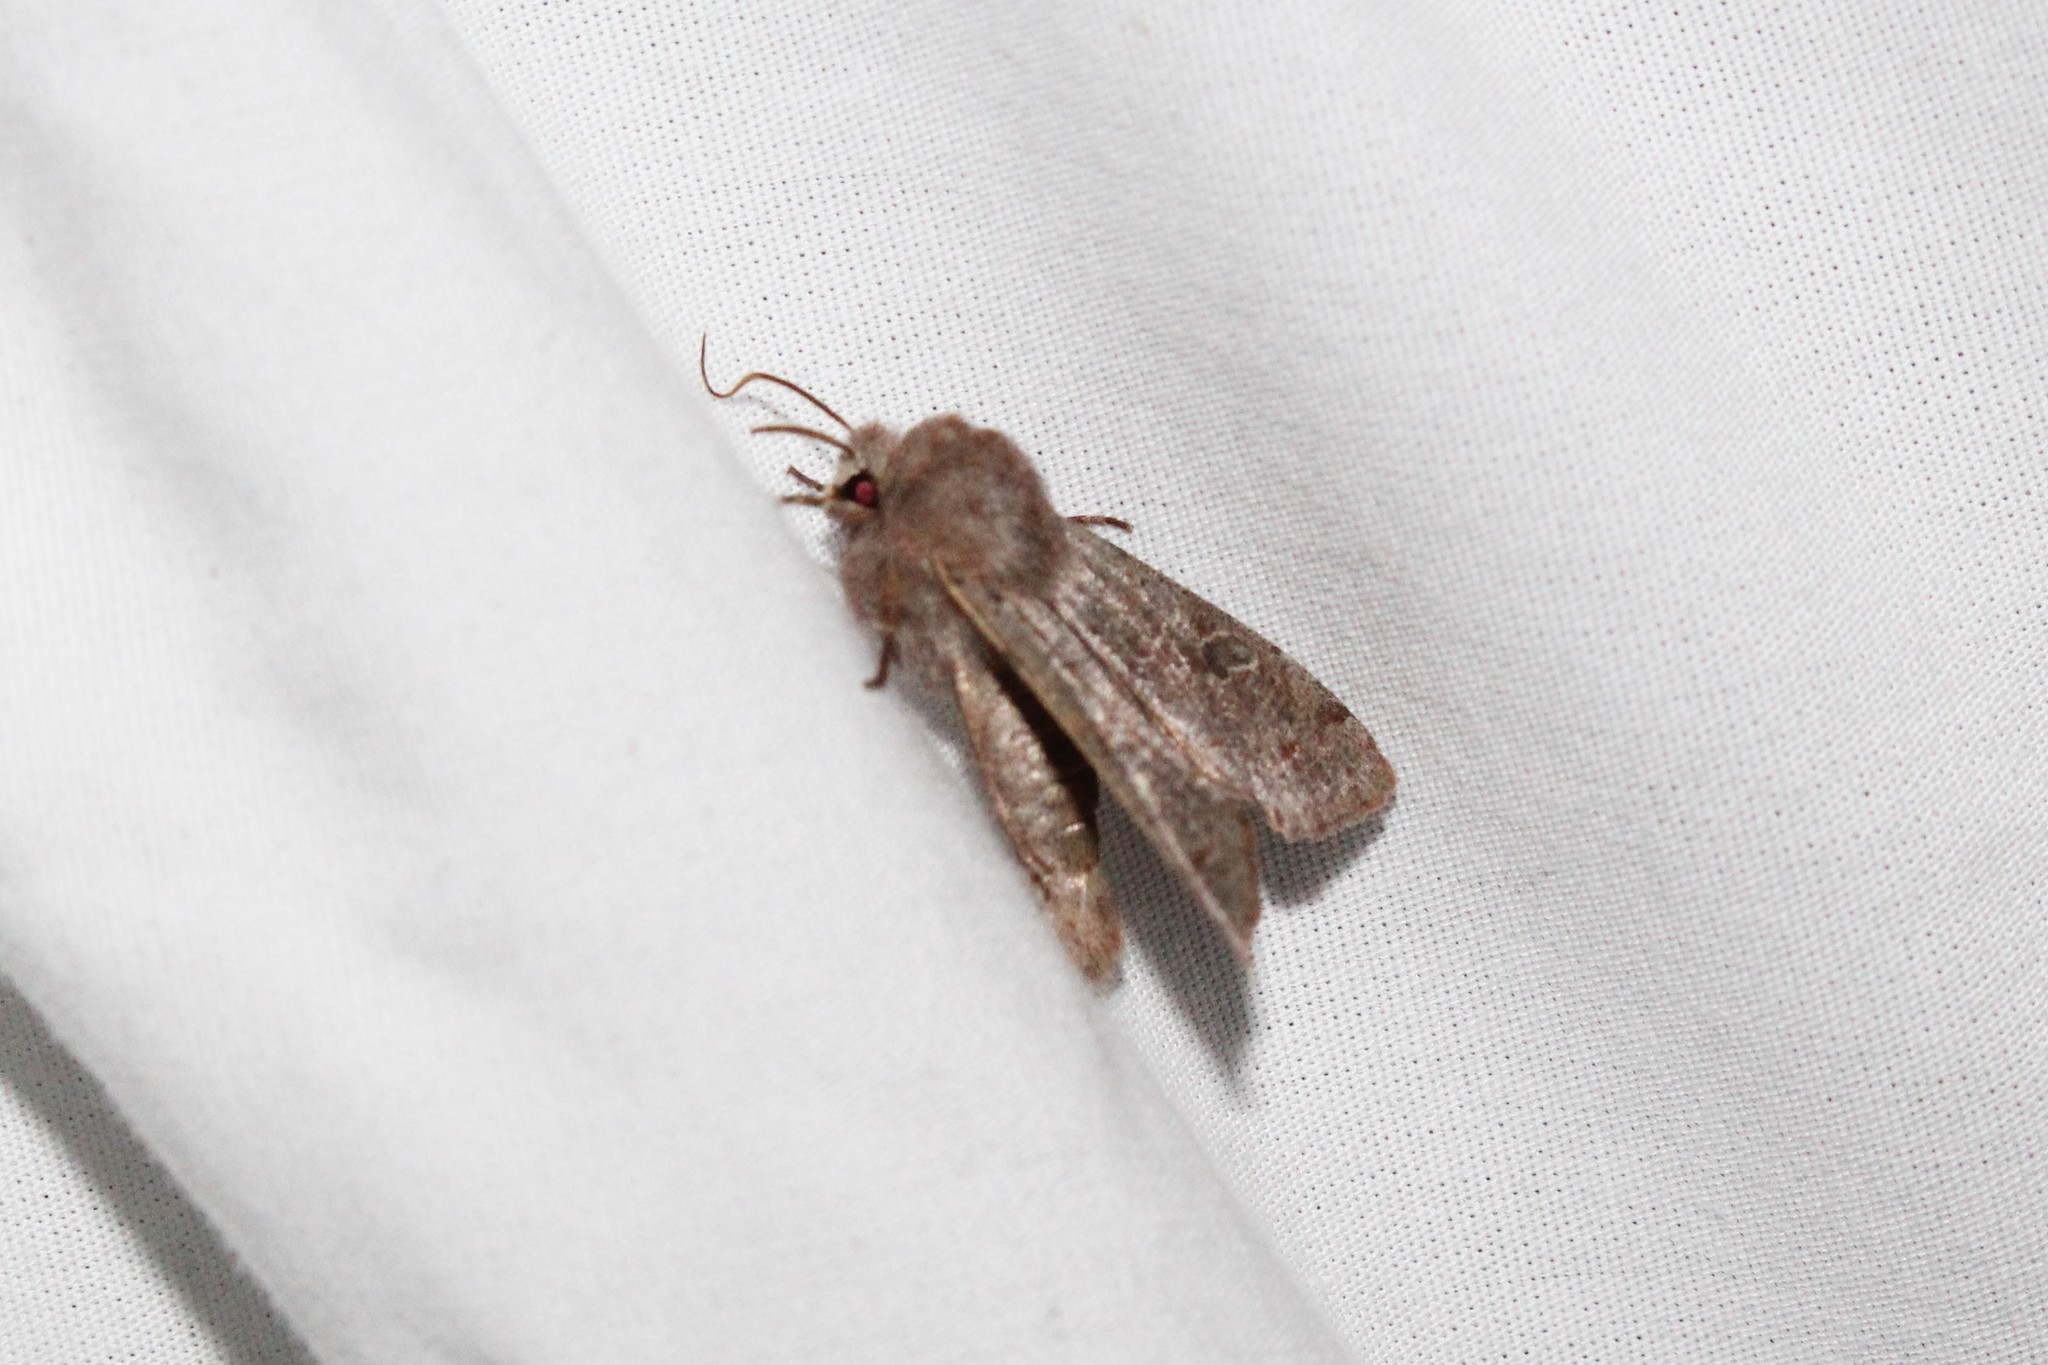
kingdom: Animalia
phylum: Arthropoda
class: Insecta
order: Lepidoptera
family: Noctuidae
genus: Orthosia
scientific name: Orthosia hibisci
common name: Green fruitworm
